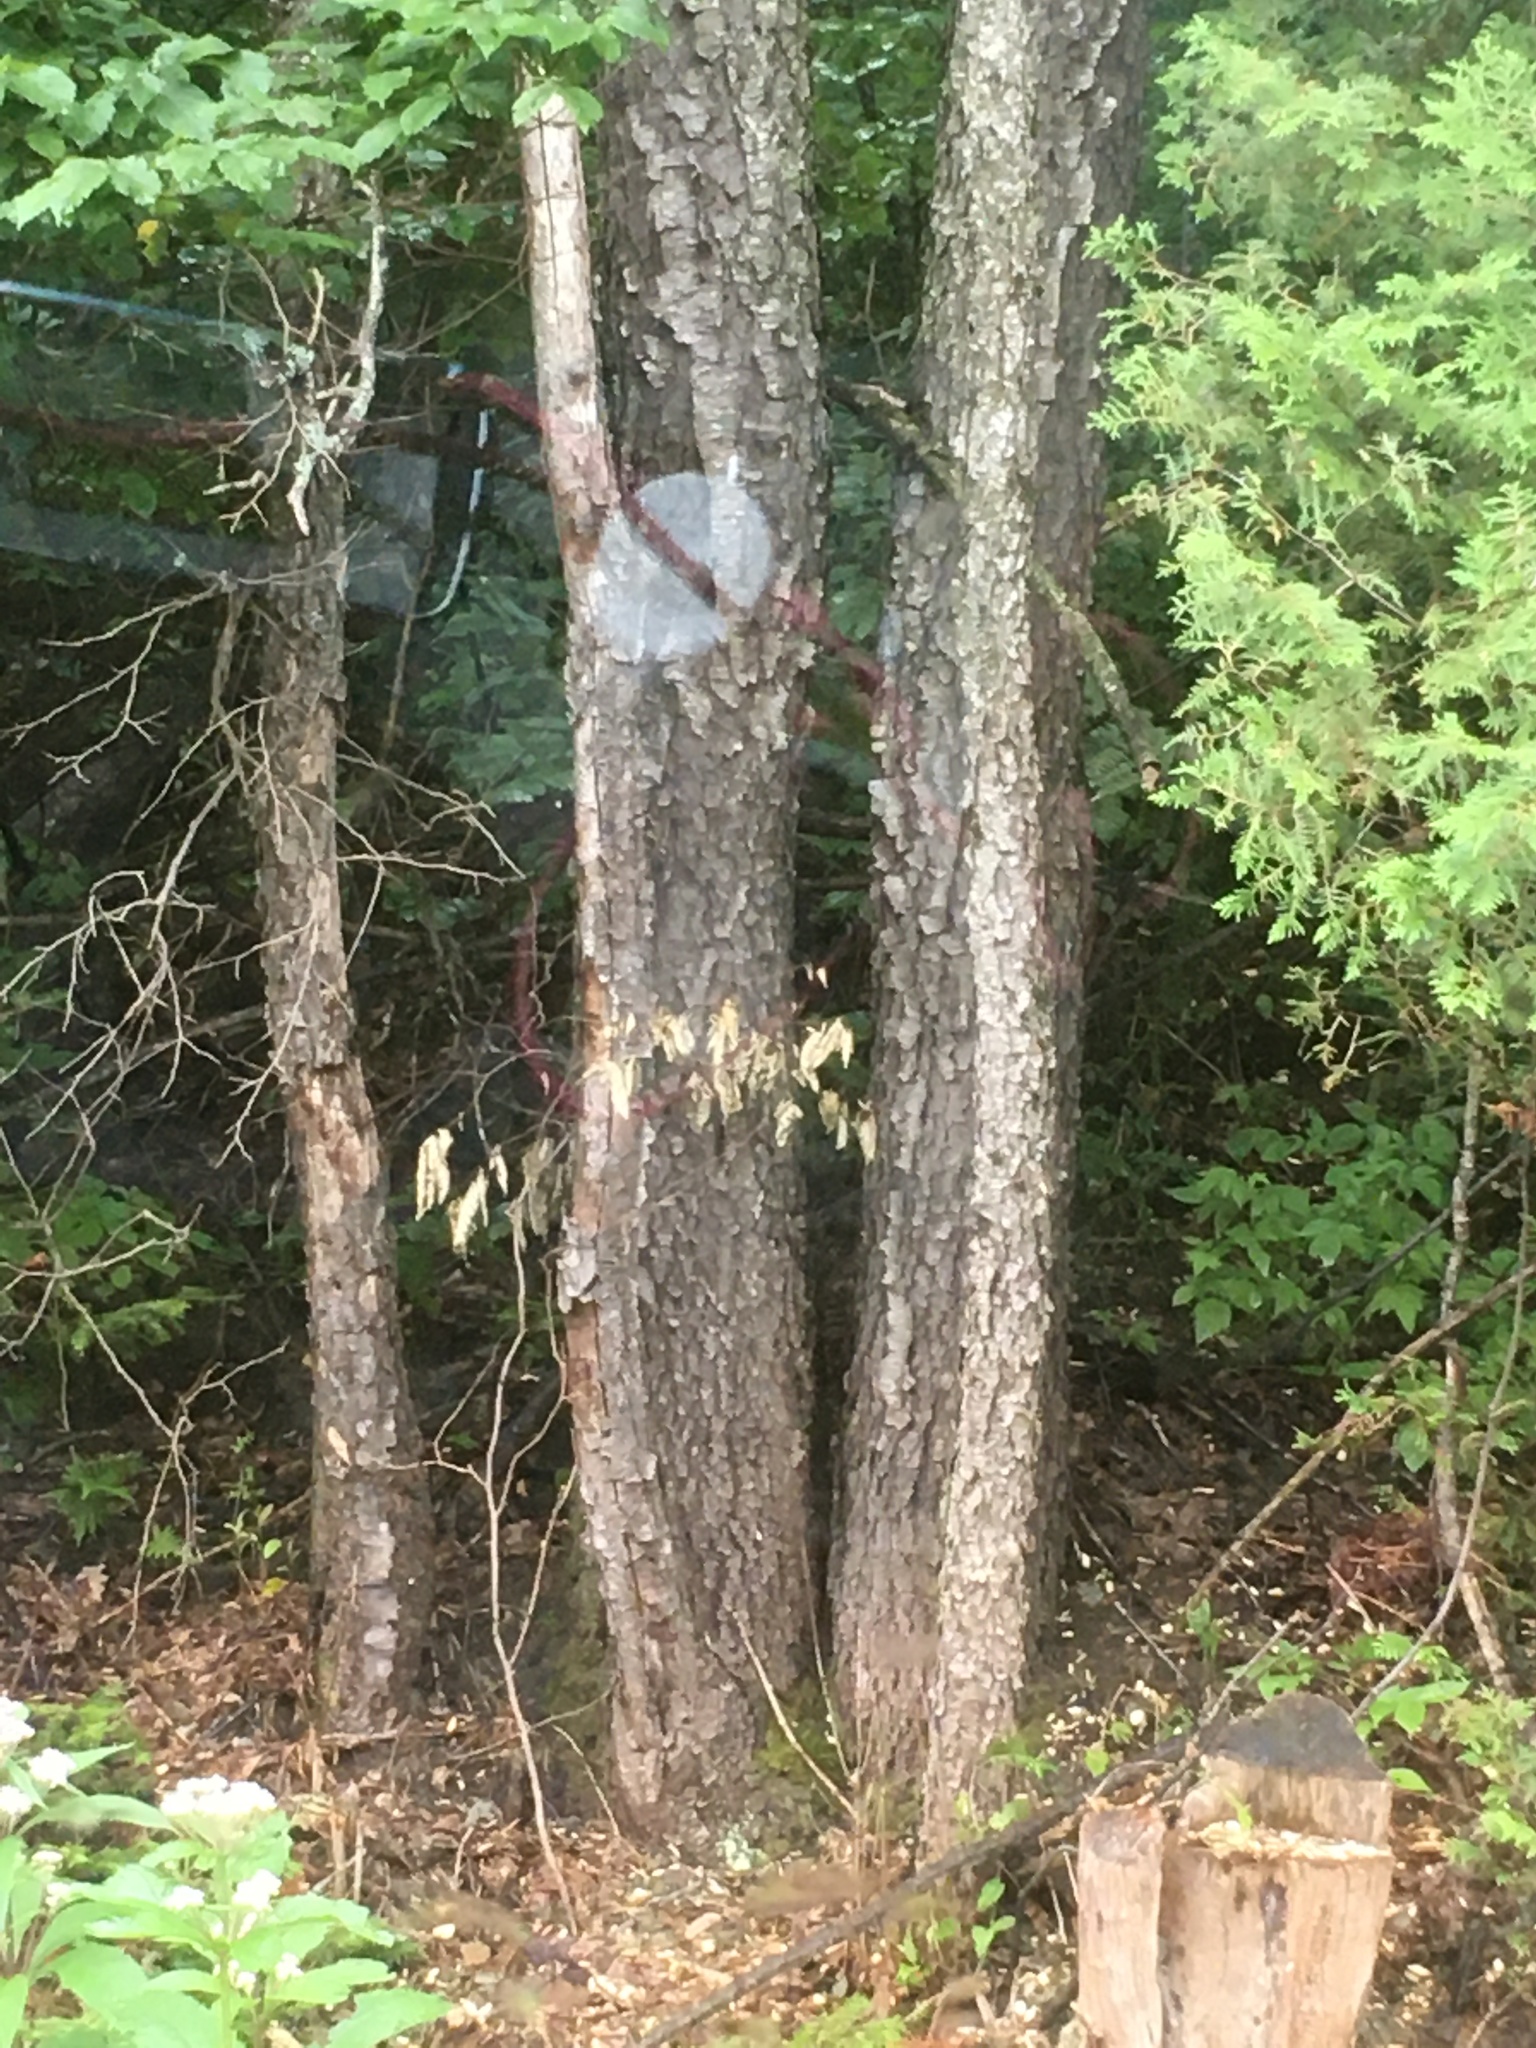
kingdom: Plantae
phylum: Tracheophyta
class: Magnoliopsida
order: Rosales
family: Rosaceae
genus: Prunus
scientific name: Prunus serotina
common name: Black cherry
